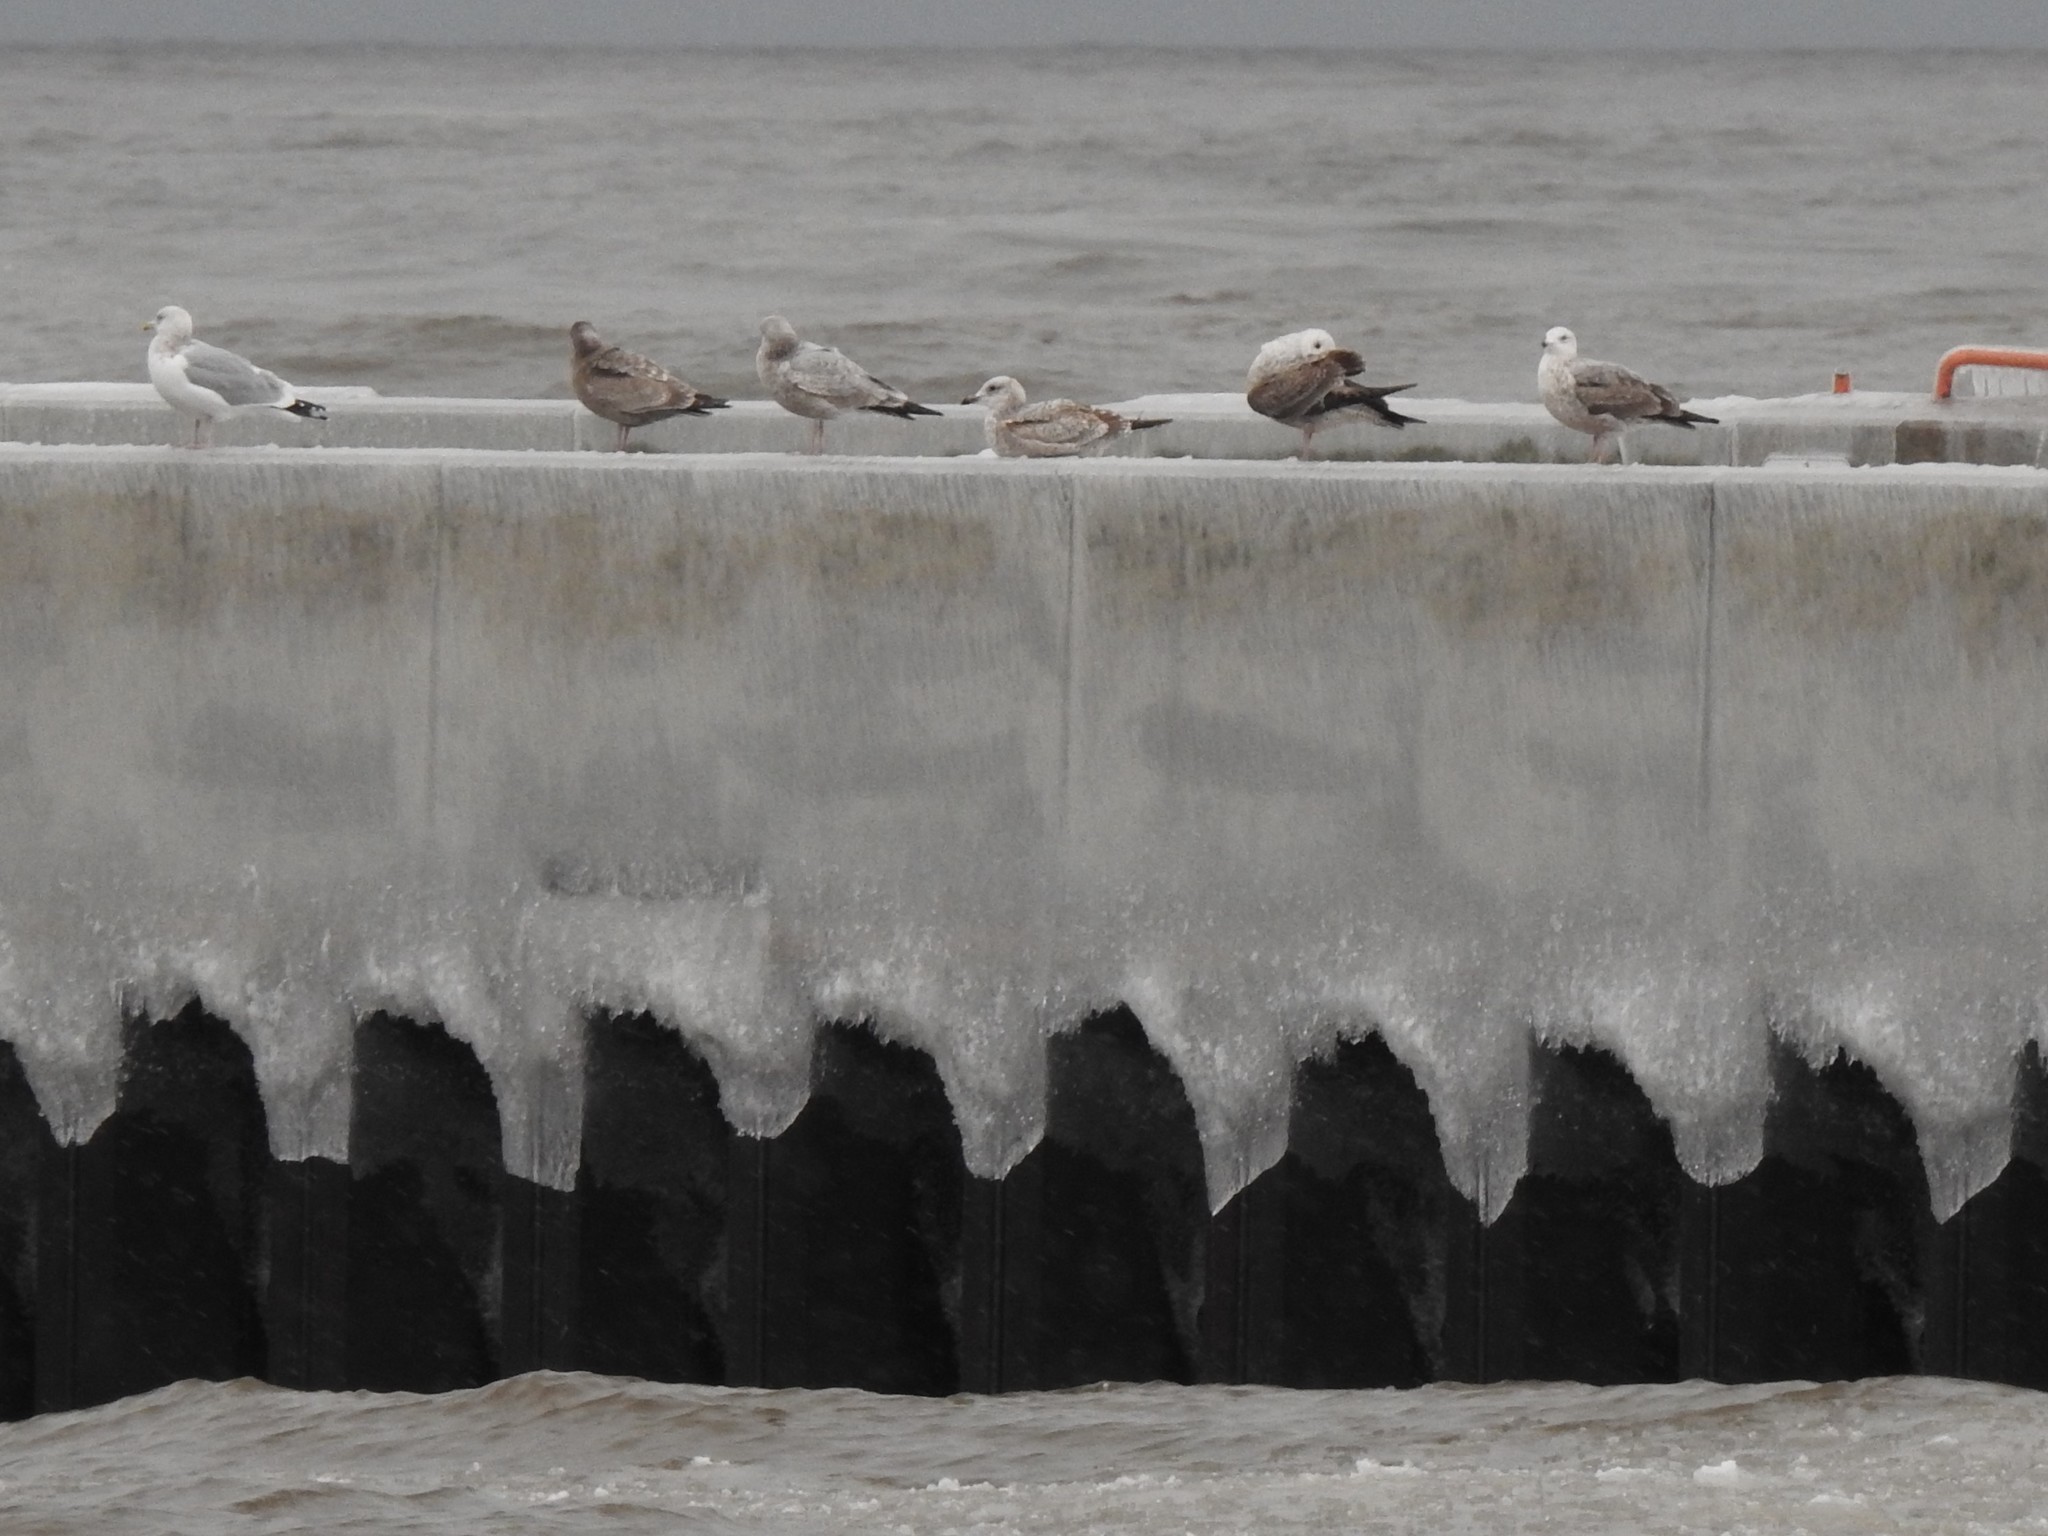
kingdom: Animalia
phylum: Chordata
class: Aves
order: Charadriiformes
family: Laridae
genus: Larus
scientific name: Larus argentatus
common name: Herring gull
